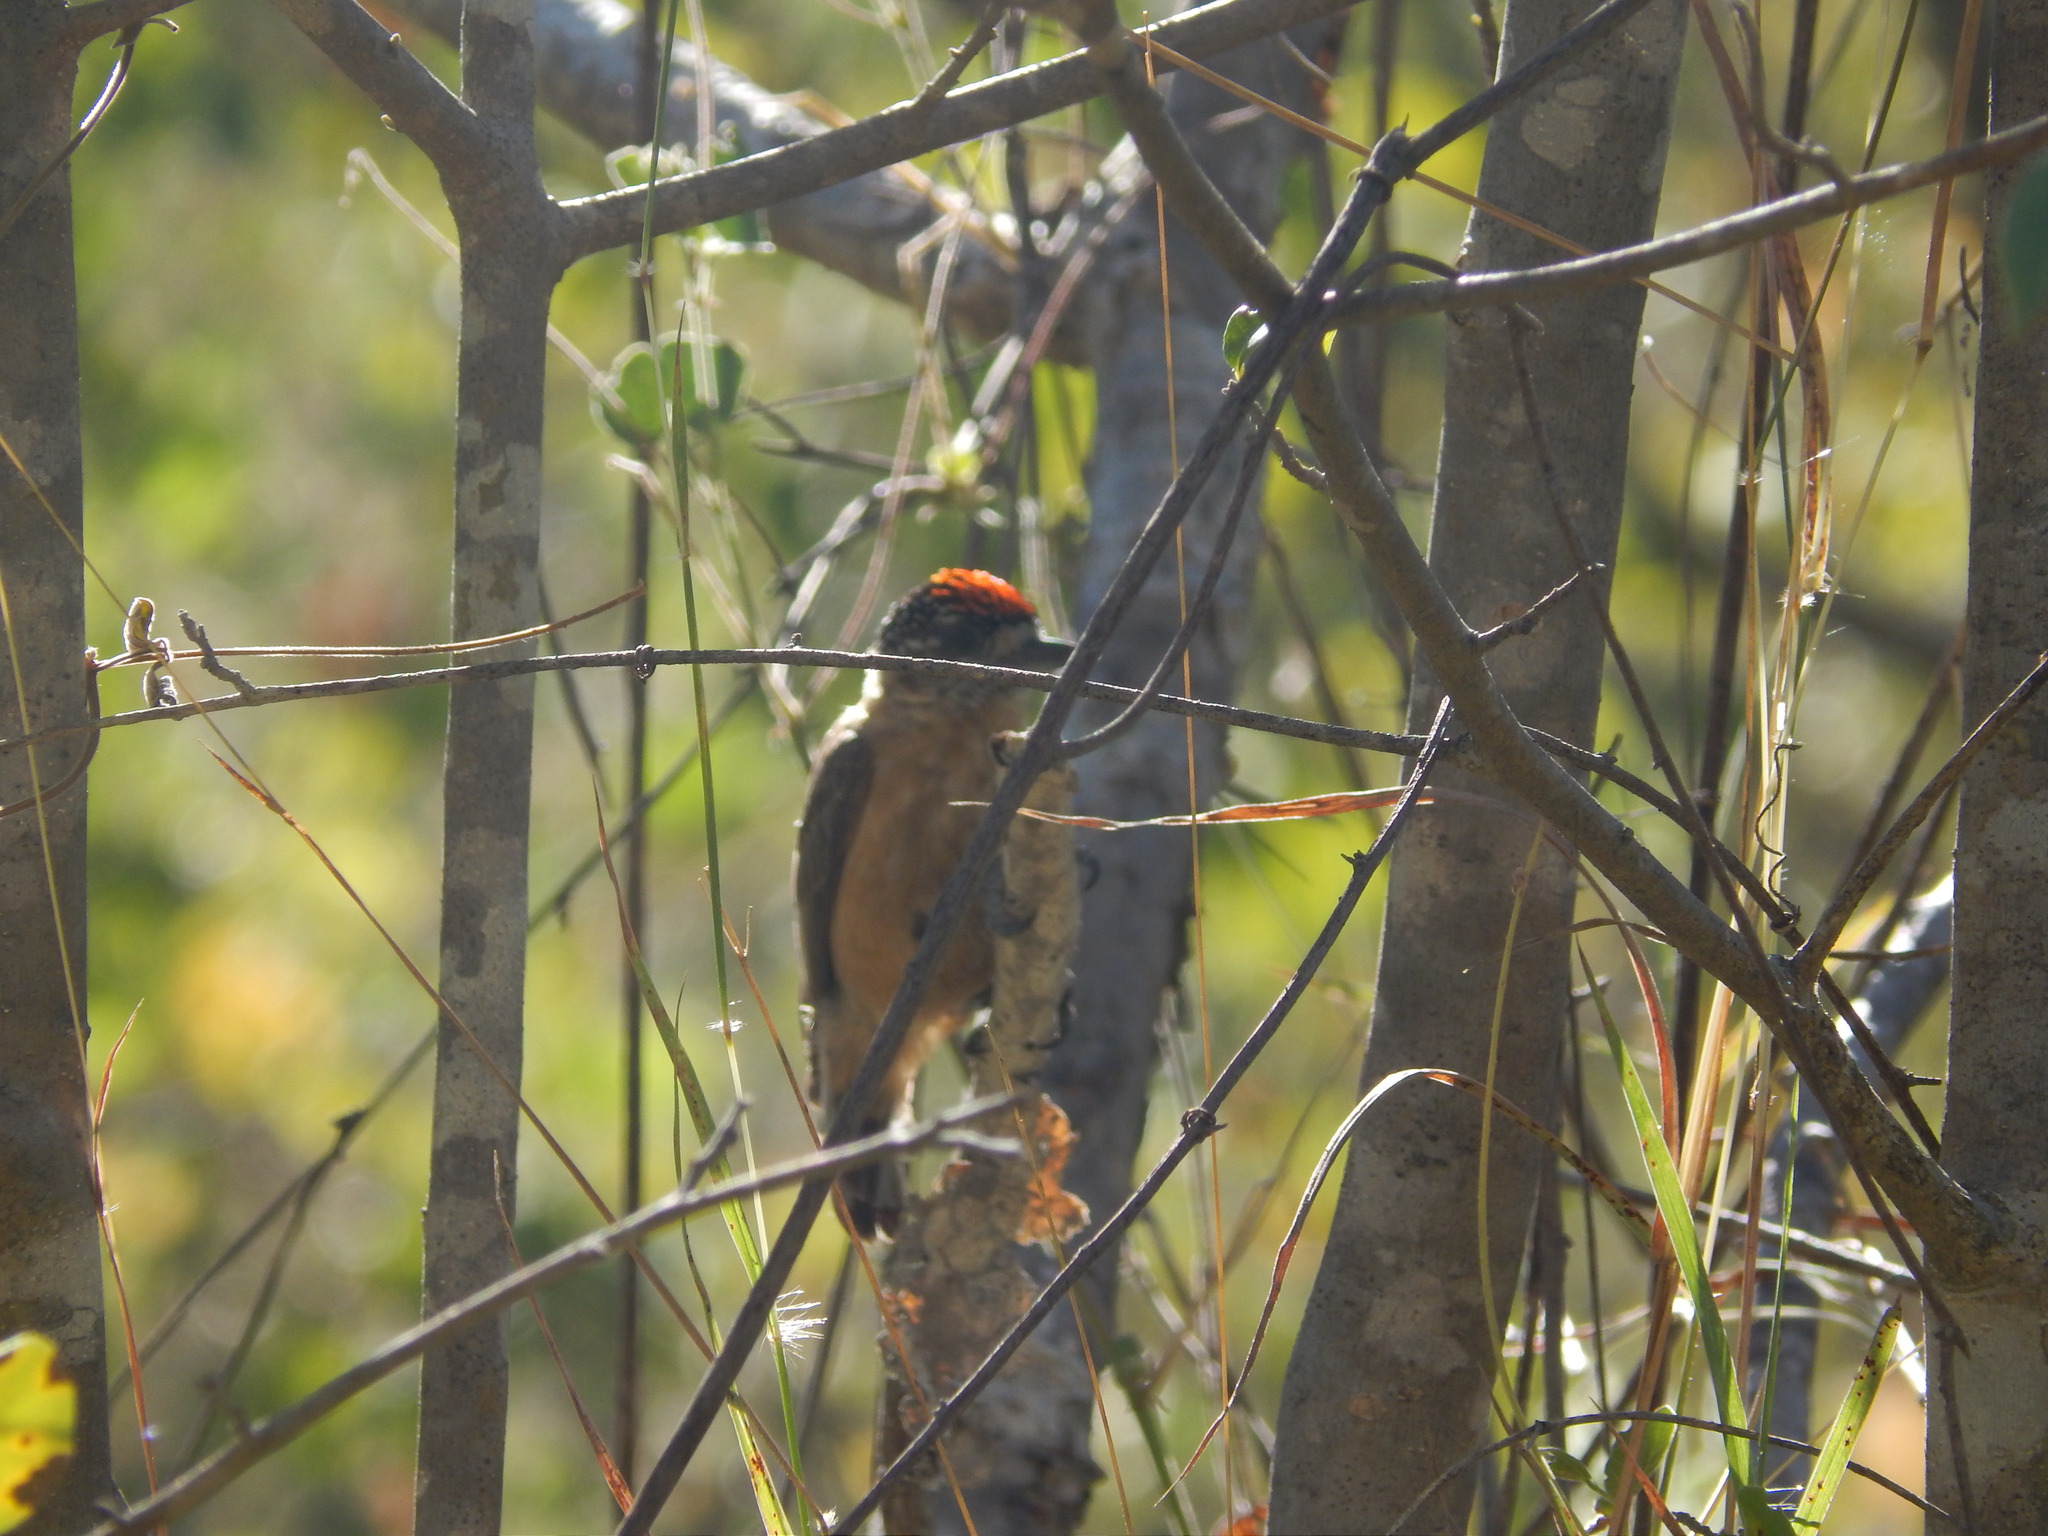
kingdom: Animalia
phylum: Chordata
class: Aves
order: Piciformes
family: Picidae
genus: Picumnus
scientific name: Picumnus limae
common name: Ochraceous piculet
